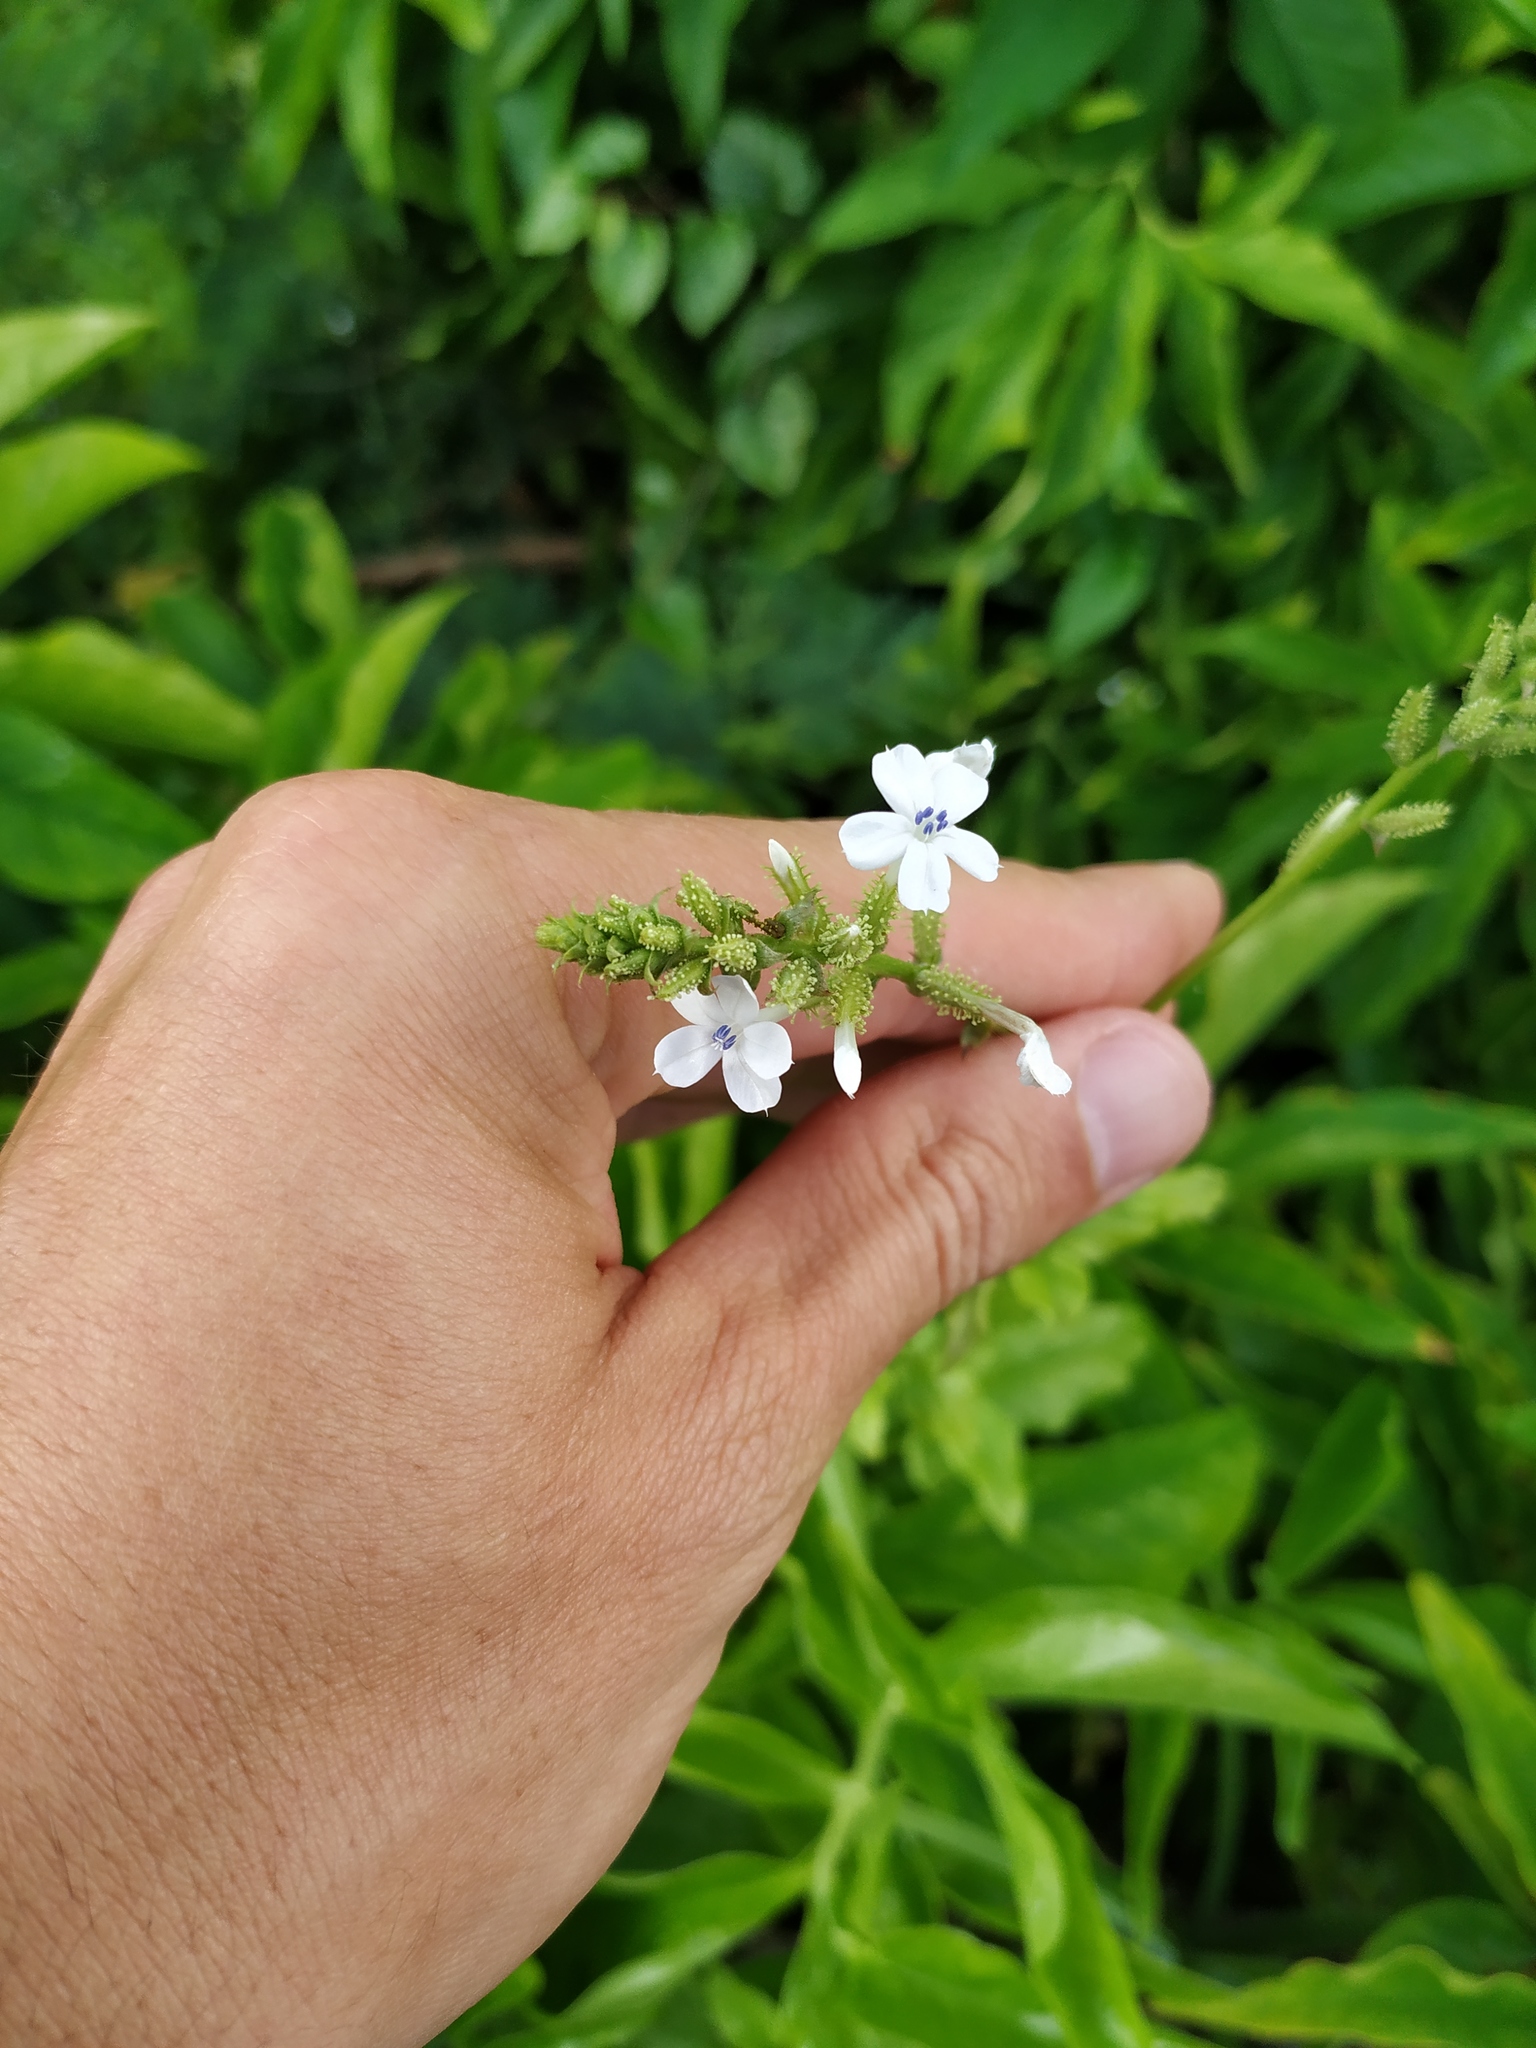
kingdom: Plantae
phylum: Tracheophyta
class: Magnoliopsida
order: Caryophyllales
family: Plumbaginaceae
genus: Plumbago
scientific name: Plumbago zeylanica
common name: Doctorbush
